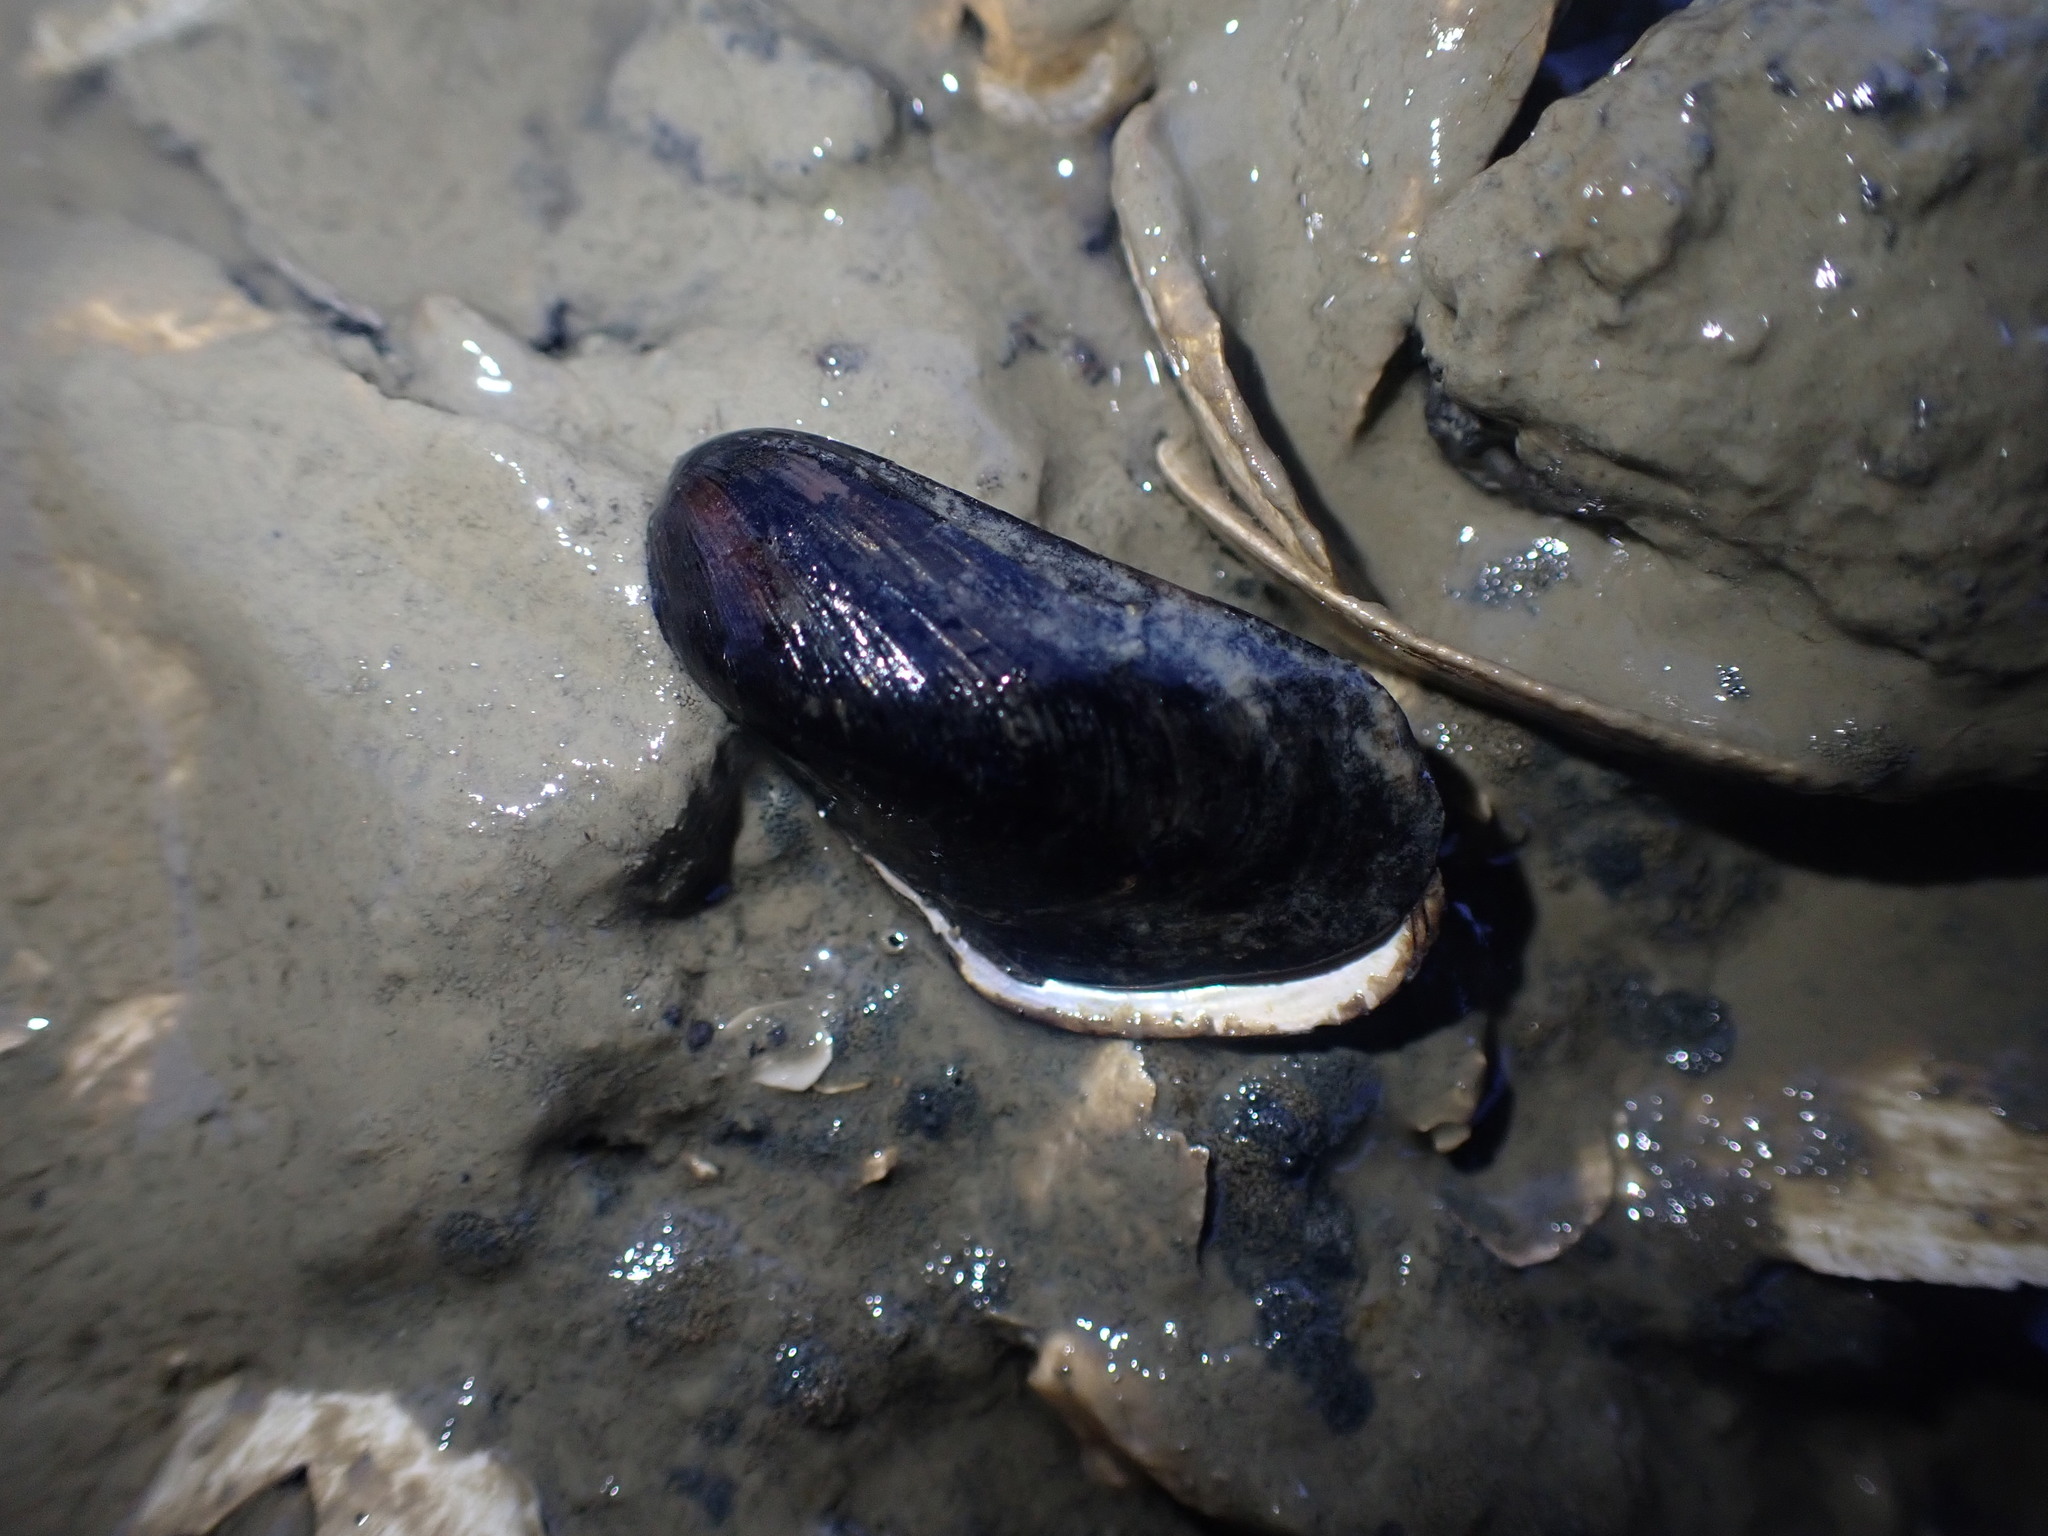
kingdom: Animalia
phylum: Mollusca
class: Bivalvia
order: Mytilida
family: Mytilidae
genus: Xenostrobus
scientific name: Xenostrobus securis
